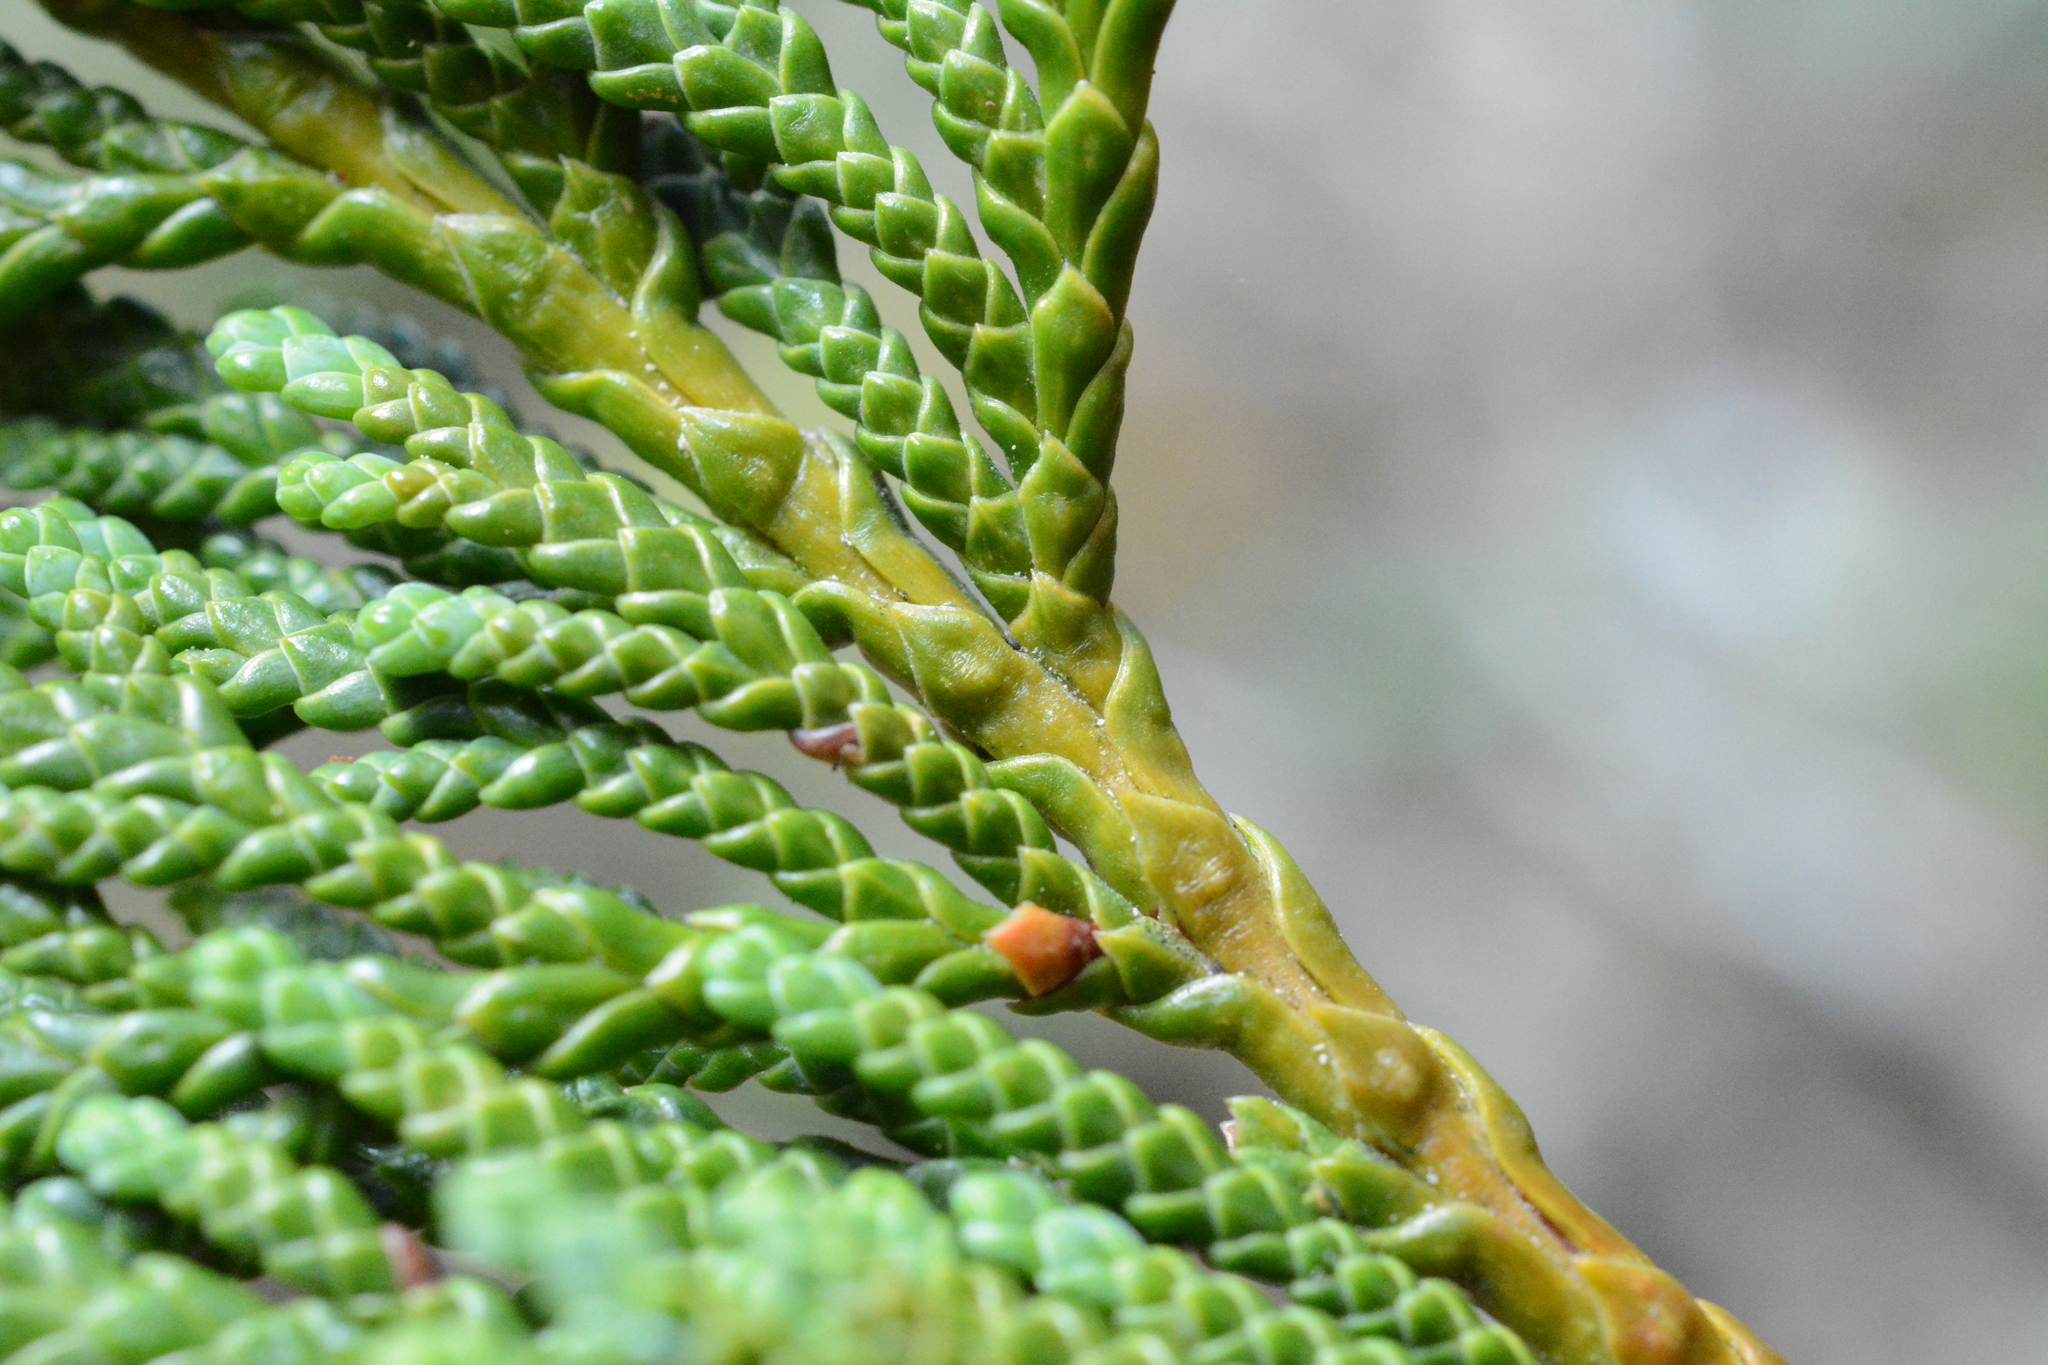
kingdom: Plantae
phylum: Tracheophyta
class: Pinopsida
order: Pinales
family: Cupressaceae
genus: Thuja
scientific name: Thuja plicata
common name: Western red-cedar
